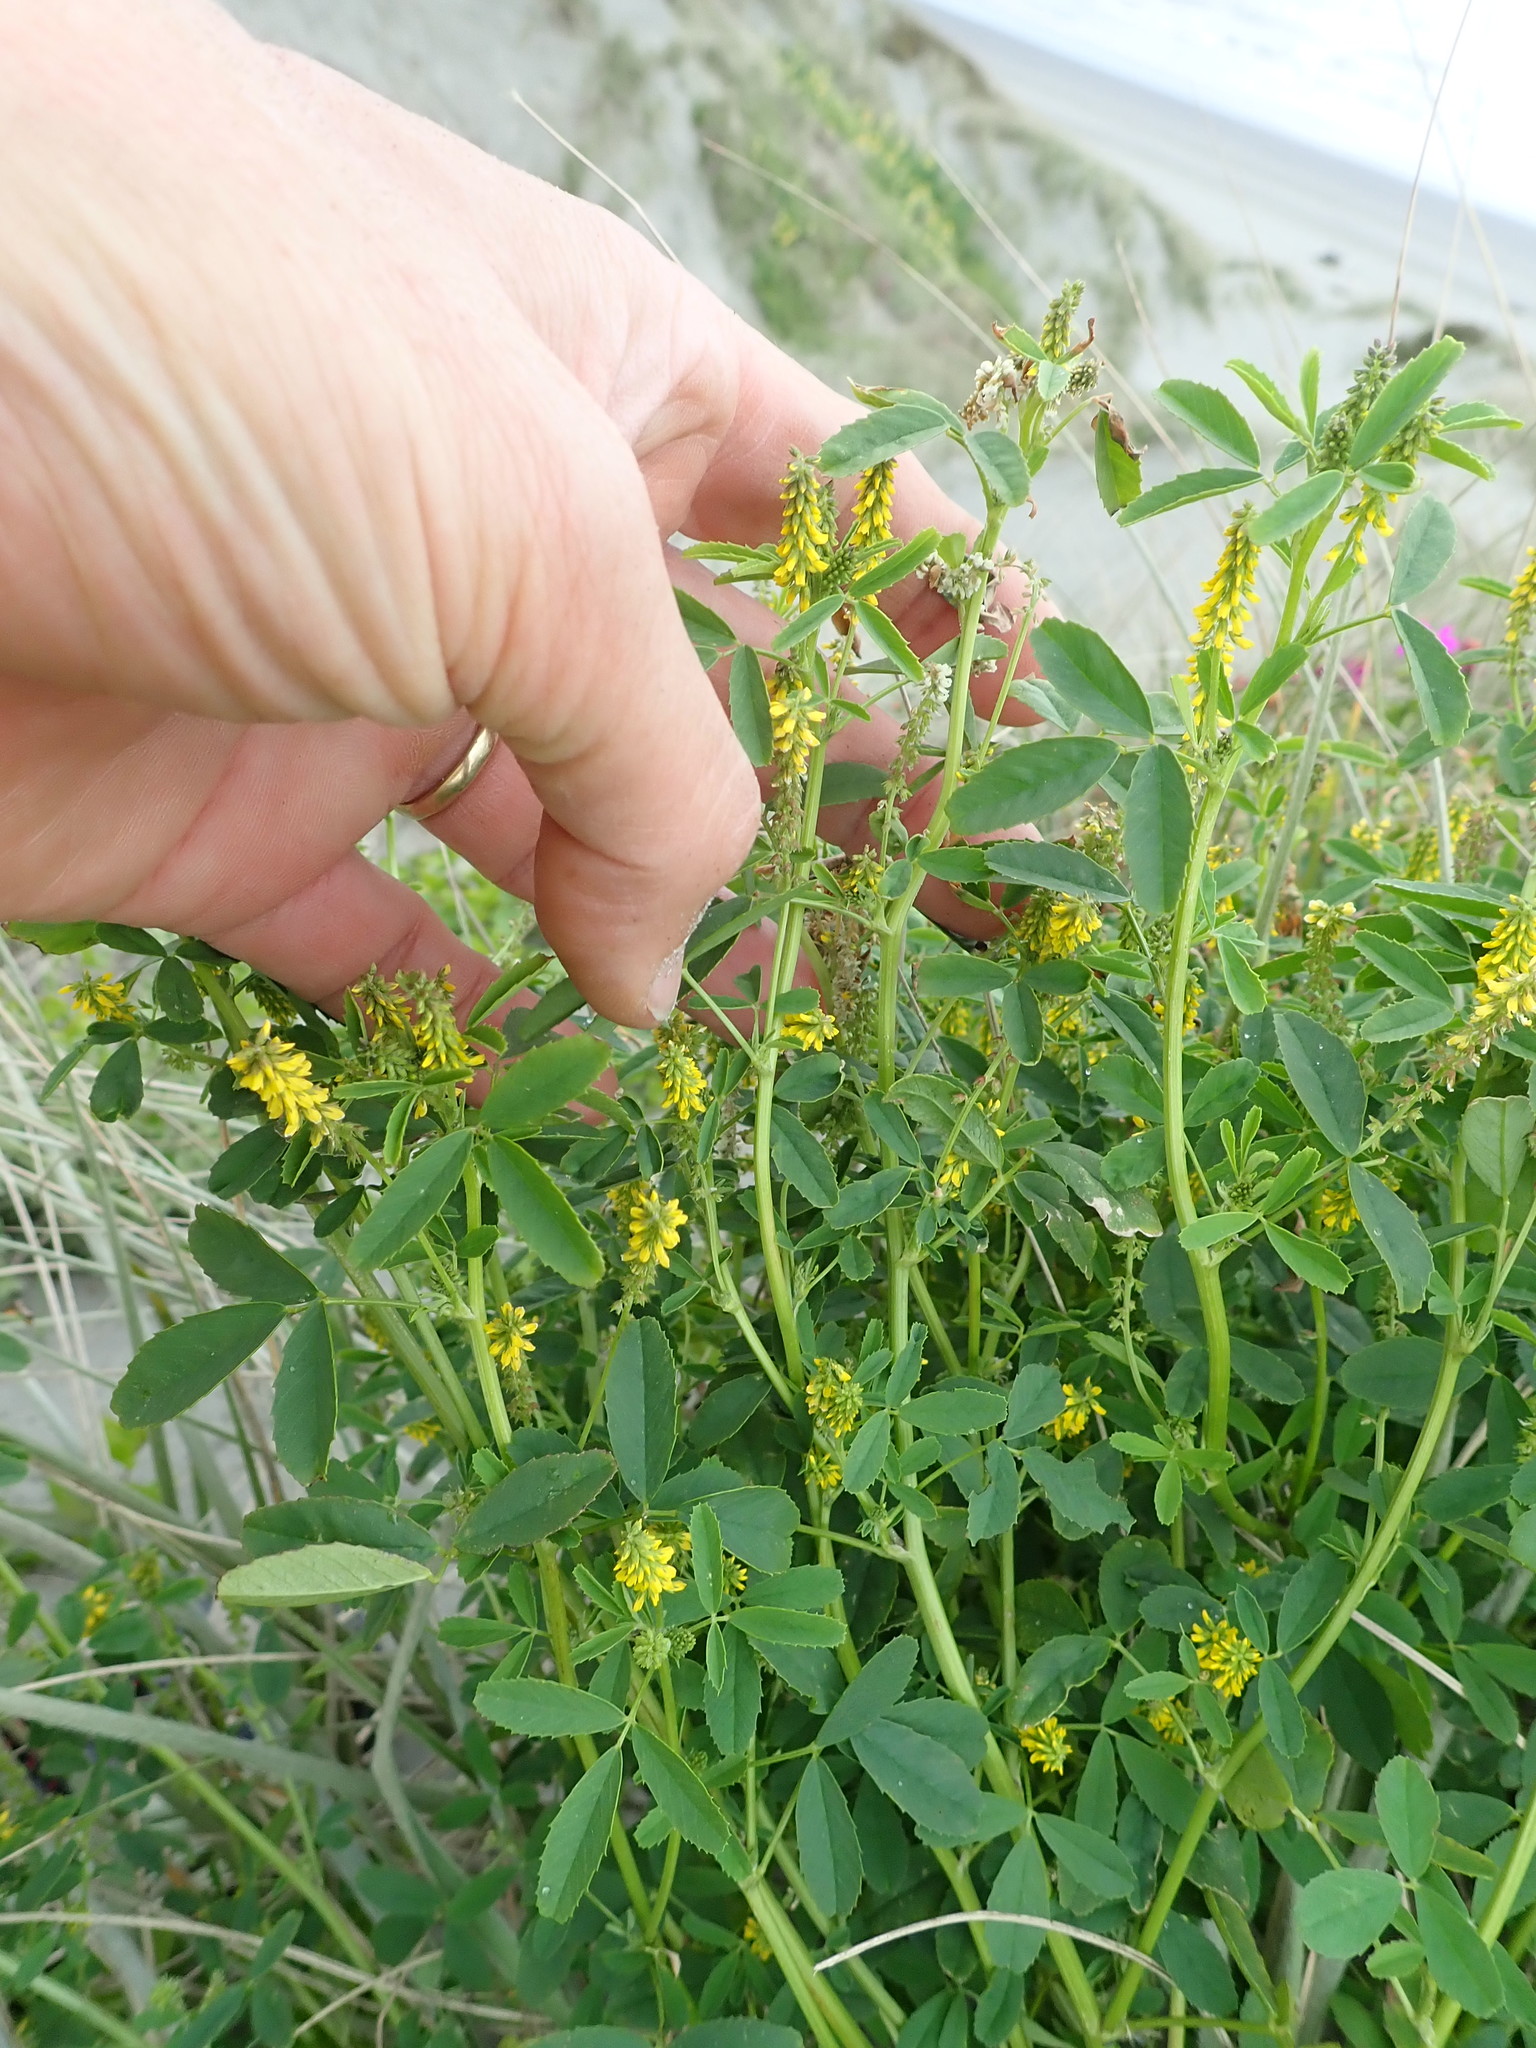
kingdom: Plantae
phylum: Tracheophyta
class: Magnoliopsida
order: Fabales
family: Fabaceae
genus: Melilotus
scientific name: Melilotus indicus
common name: Small melilot
